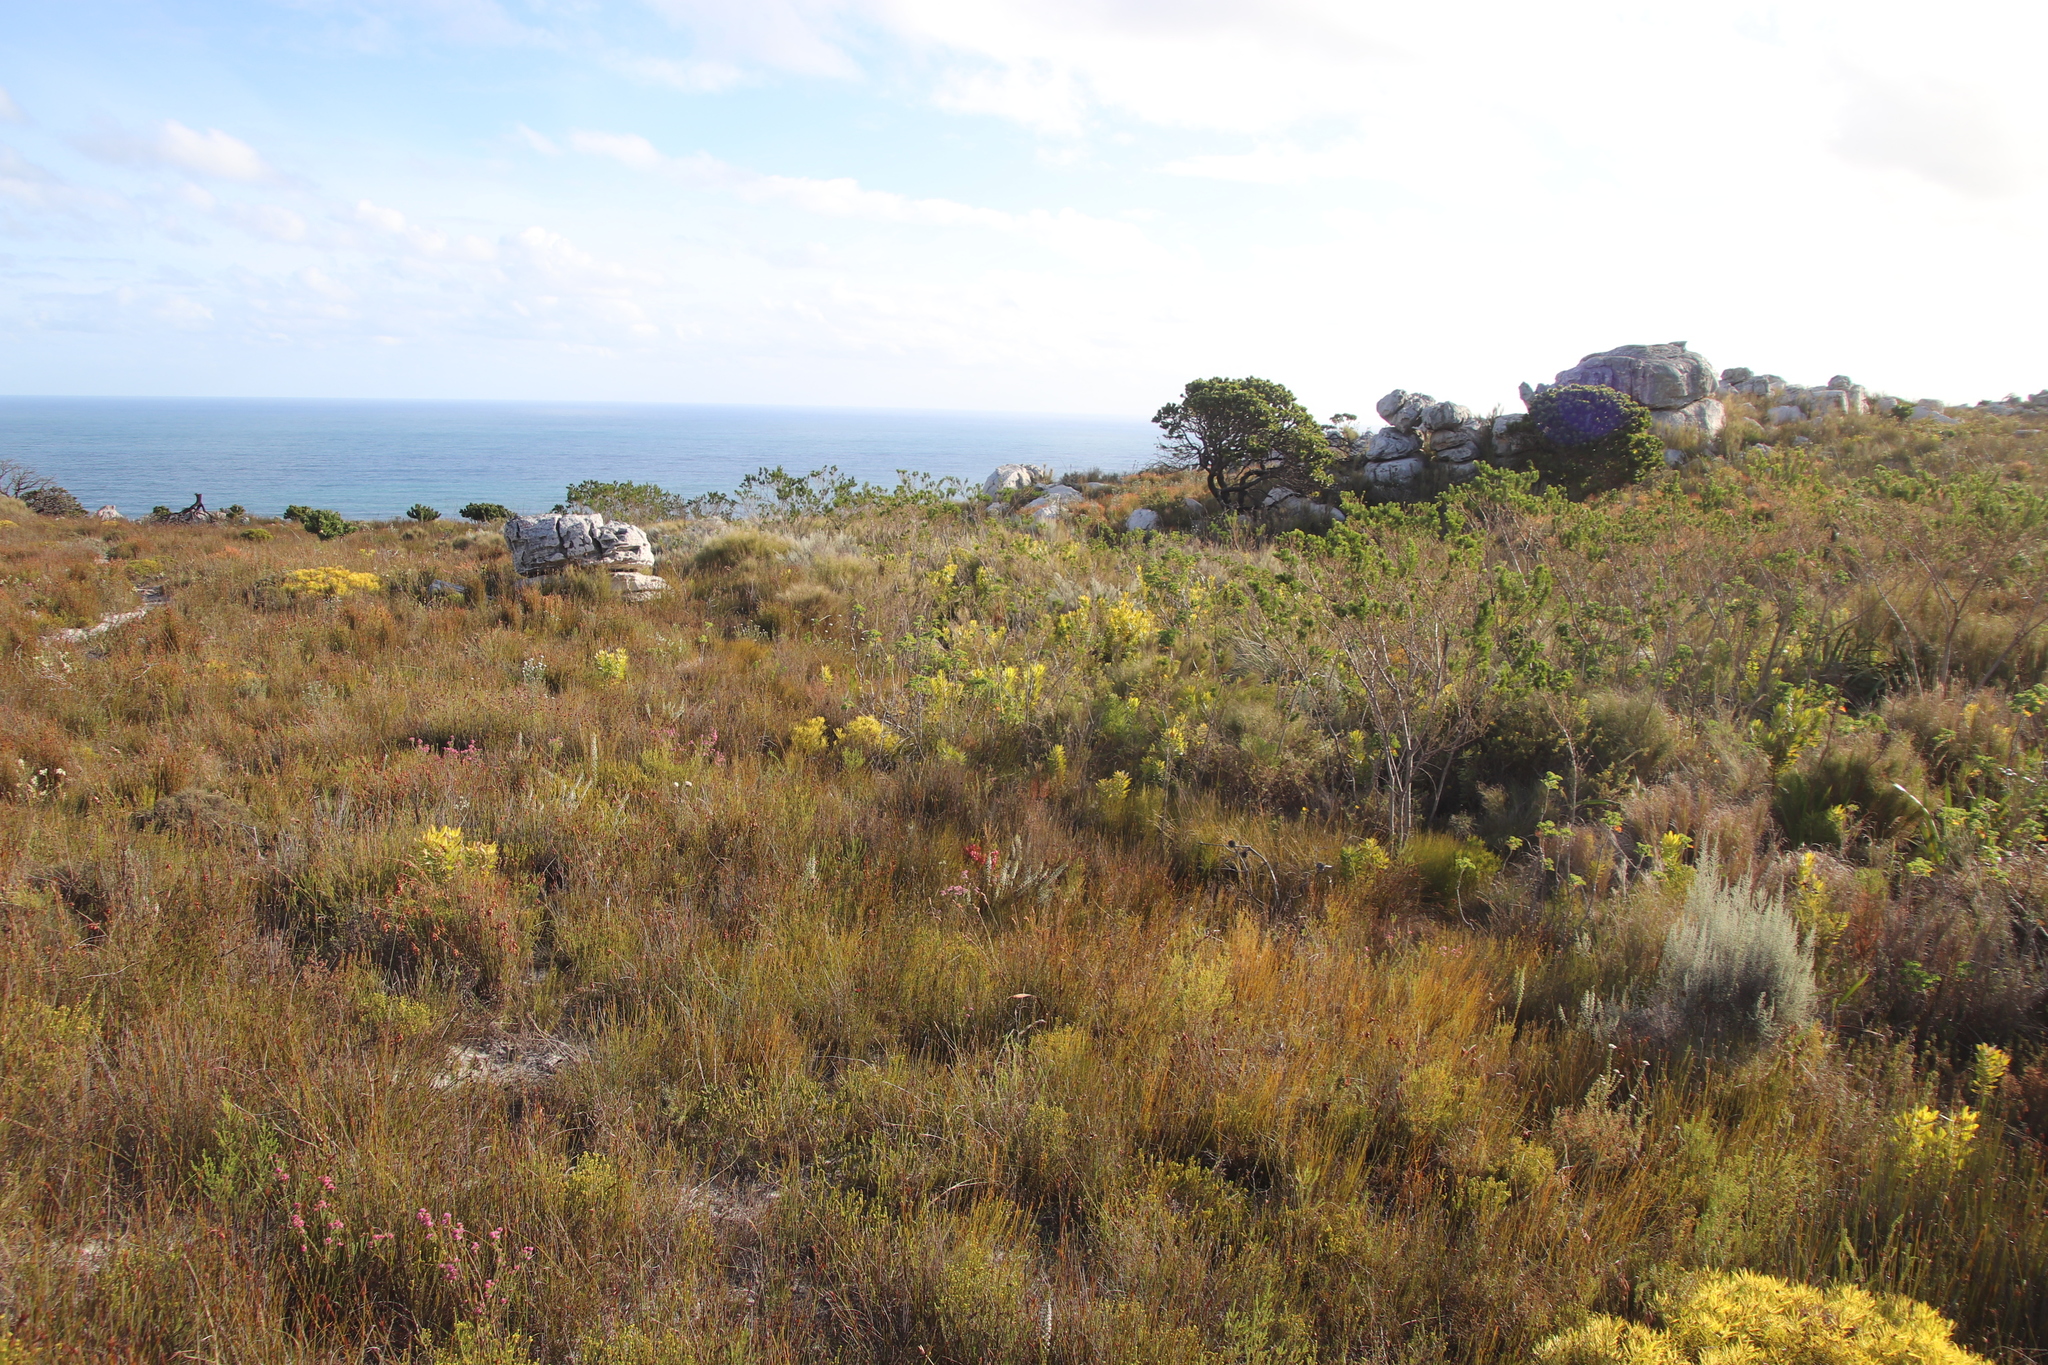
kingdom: Plantae
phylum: Tracheophyta
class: Magnoliopsida
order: Ericales
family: Ericaceae
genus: Erica
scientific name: Erica imbricata
